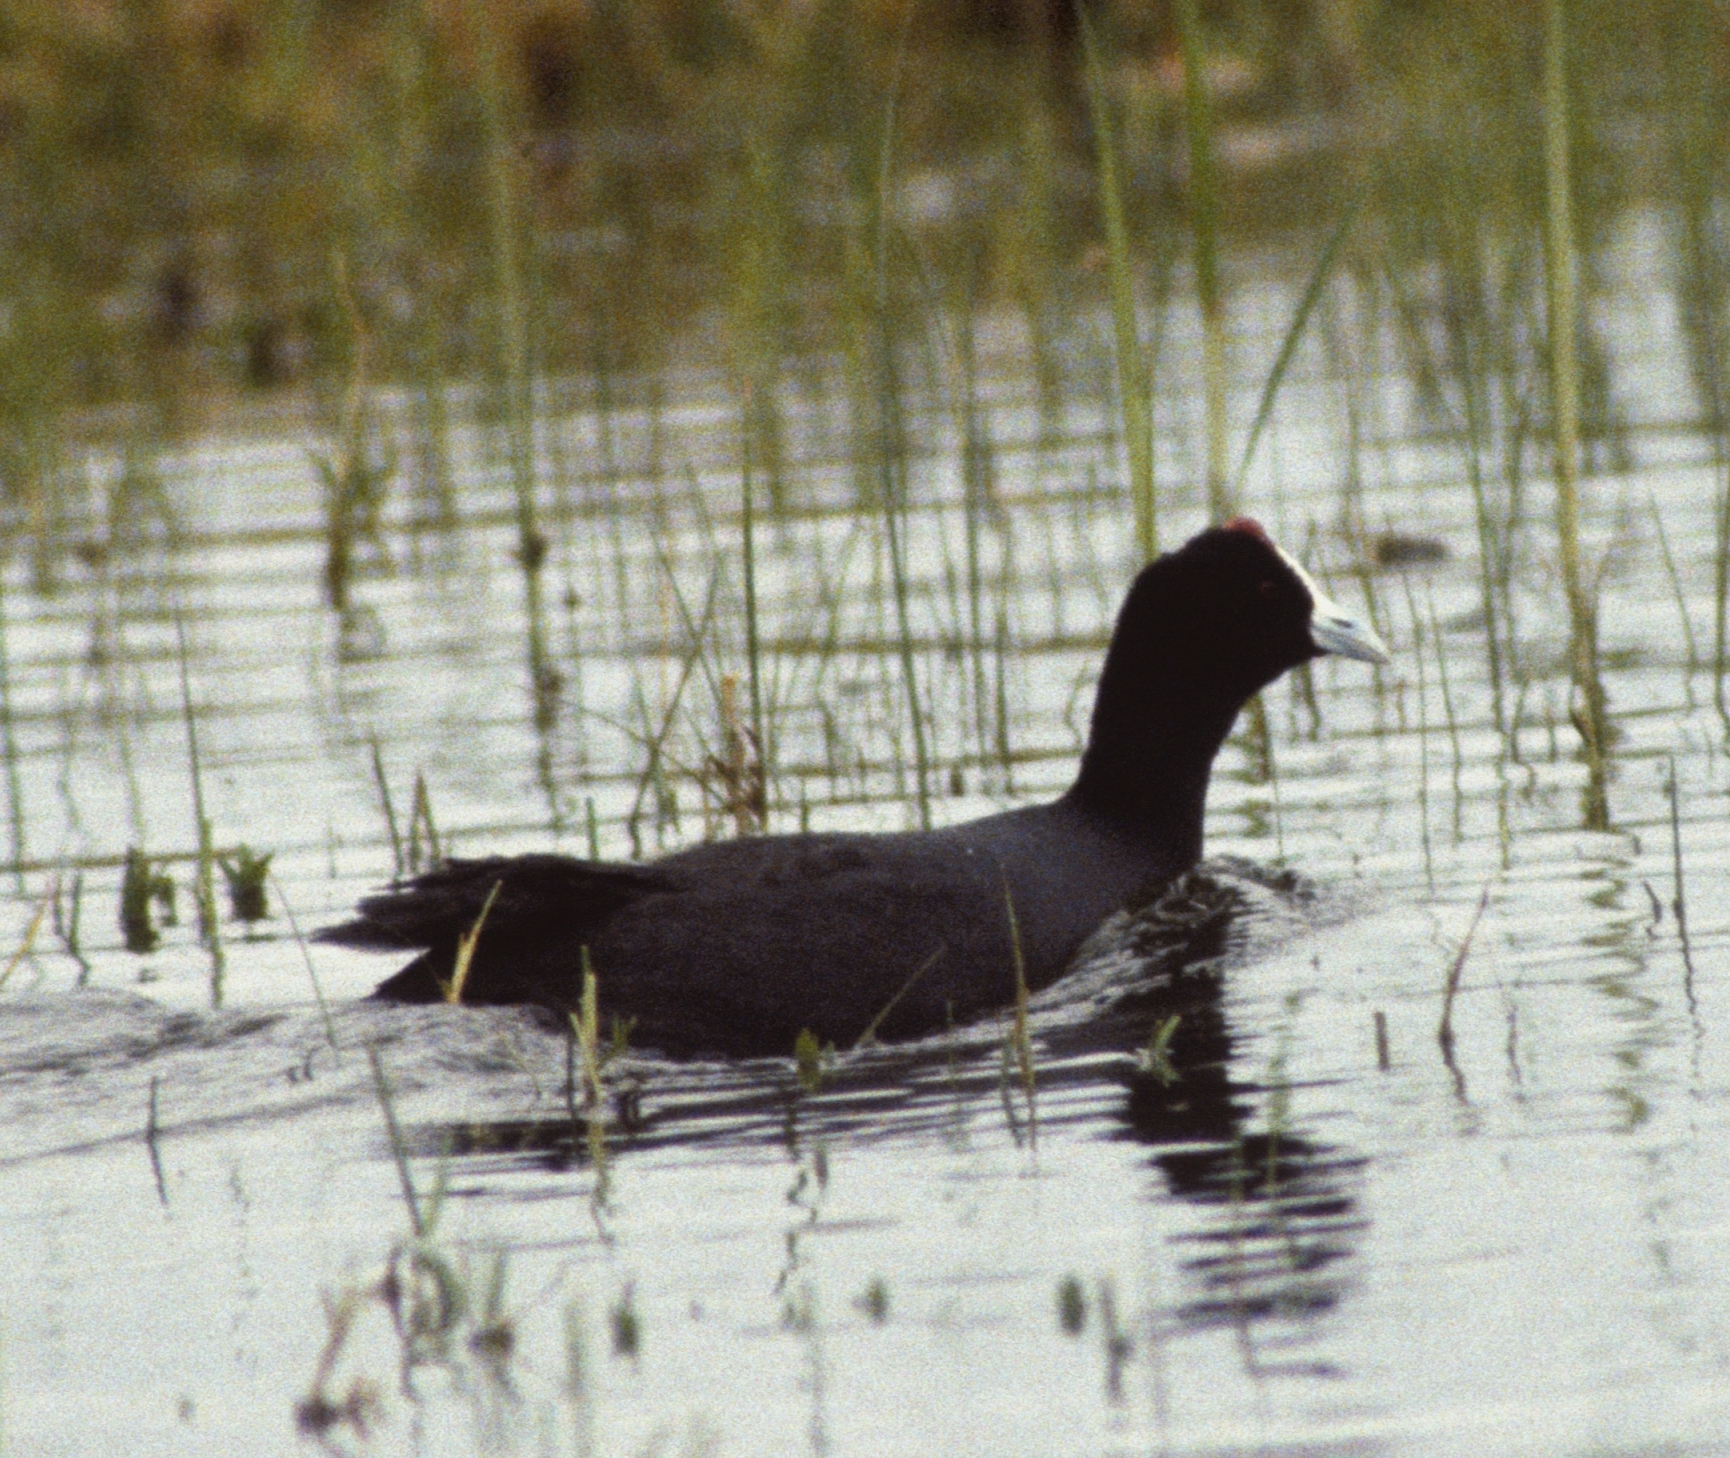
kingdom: Animalia
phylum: Chordata
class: Aves
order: Gruiformes
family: Rallidae
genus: Fulica
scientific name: Fulica cristata
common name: Red-knobbed coot
